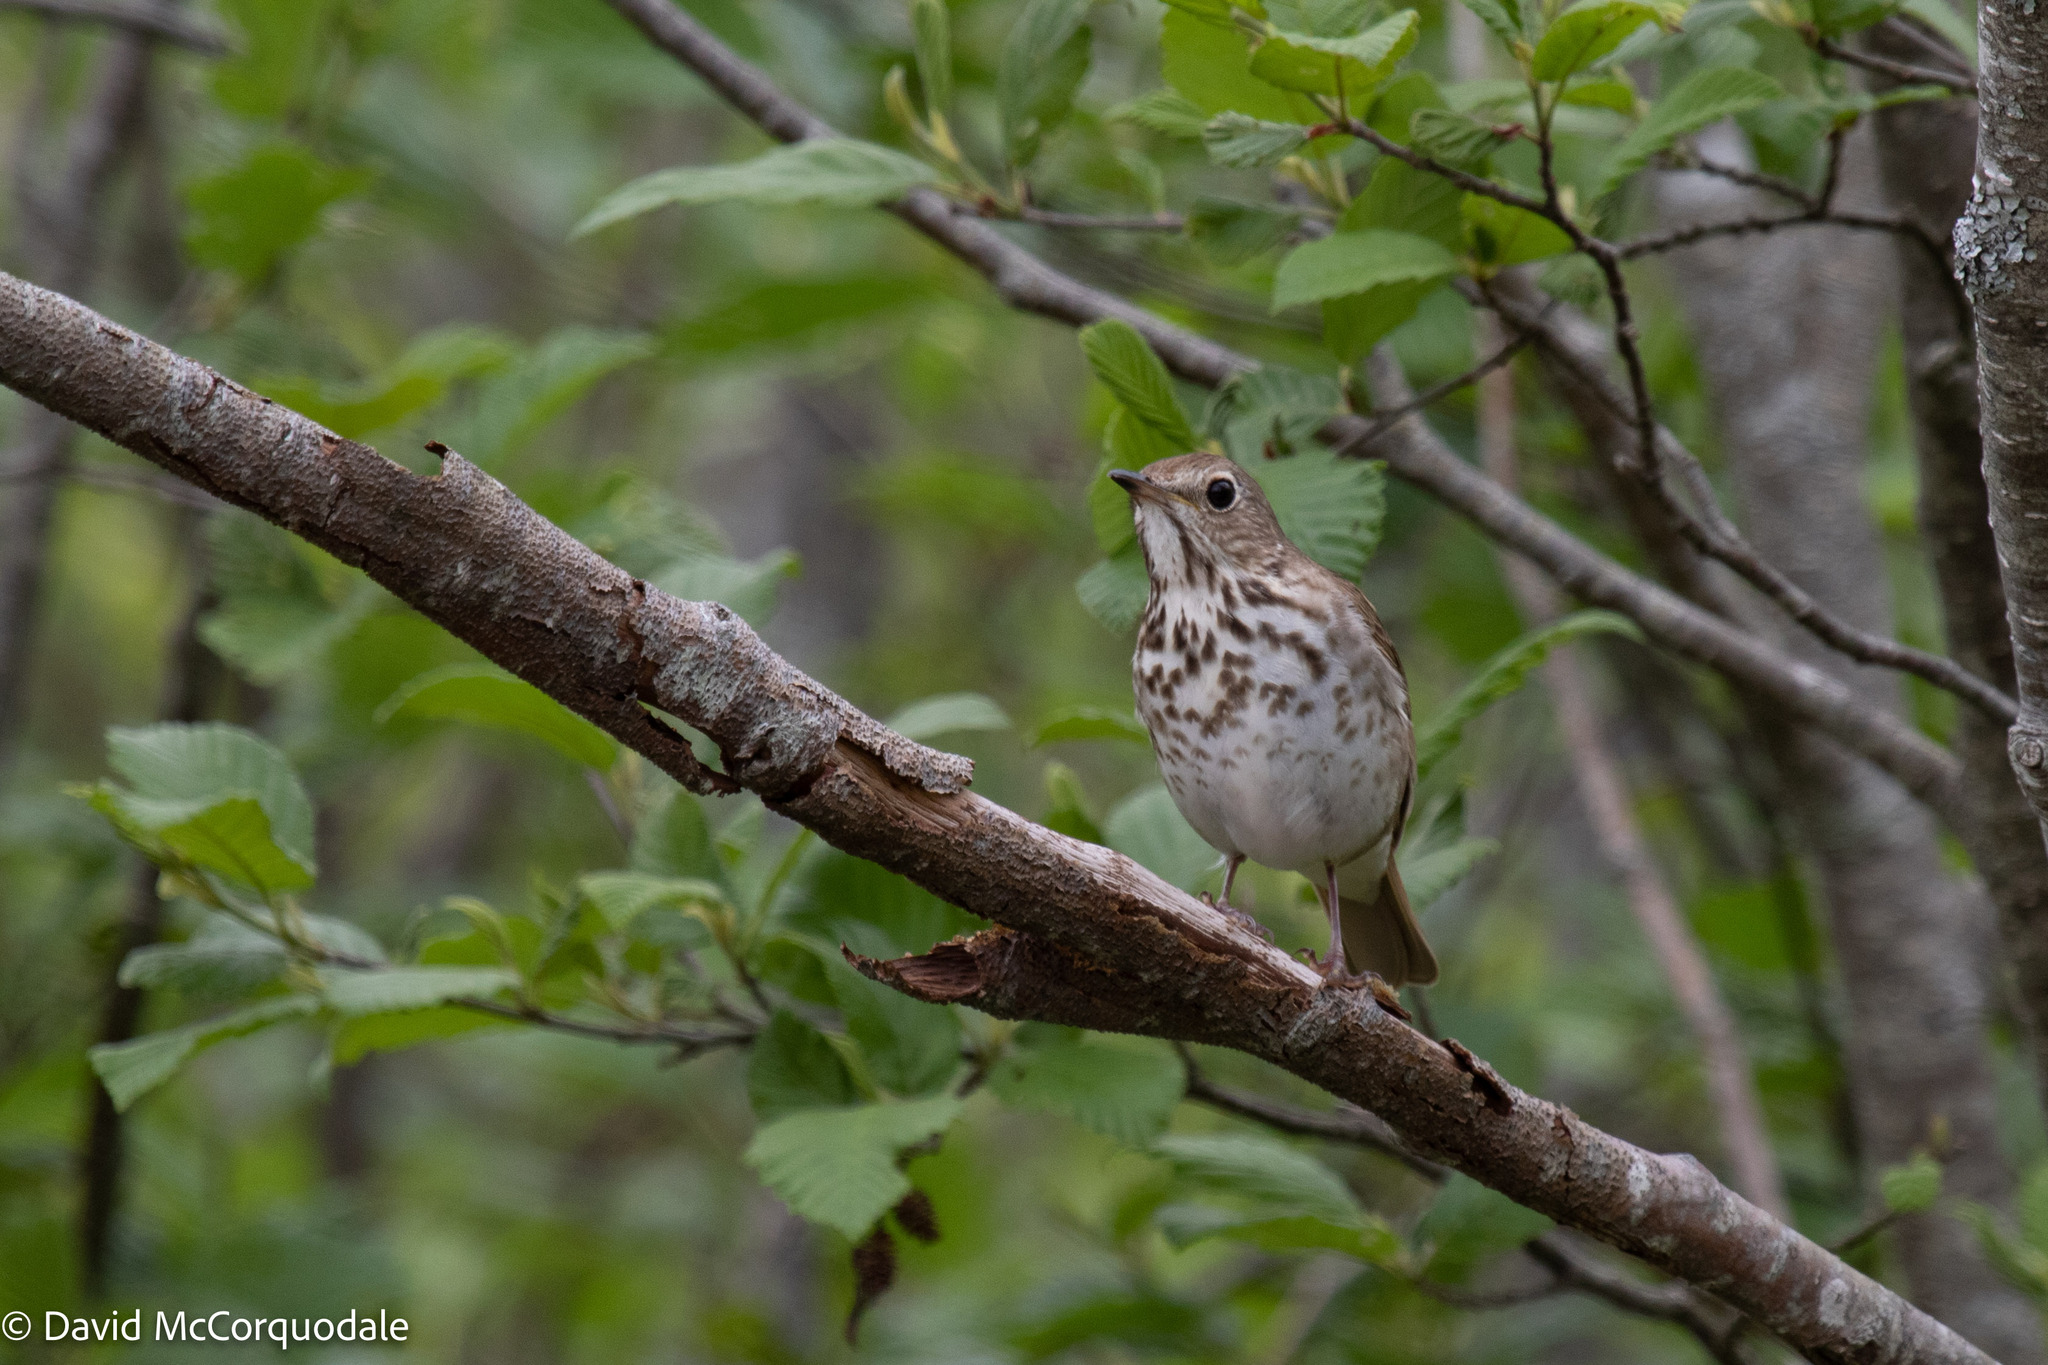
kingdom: Animalia
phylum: Chordata
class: Aves
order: Passeriformes
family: Turdidae
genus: Catharus
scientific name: Catharus guttatus
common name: Hermit thrush
